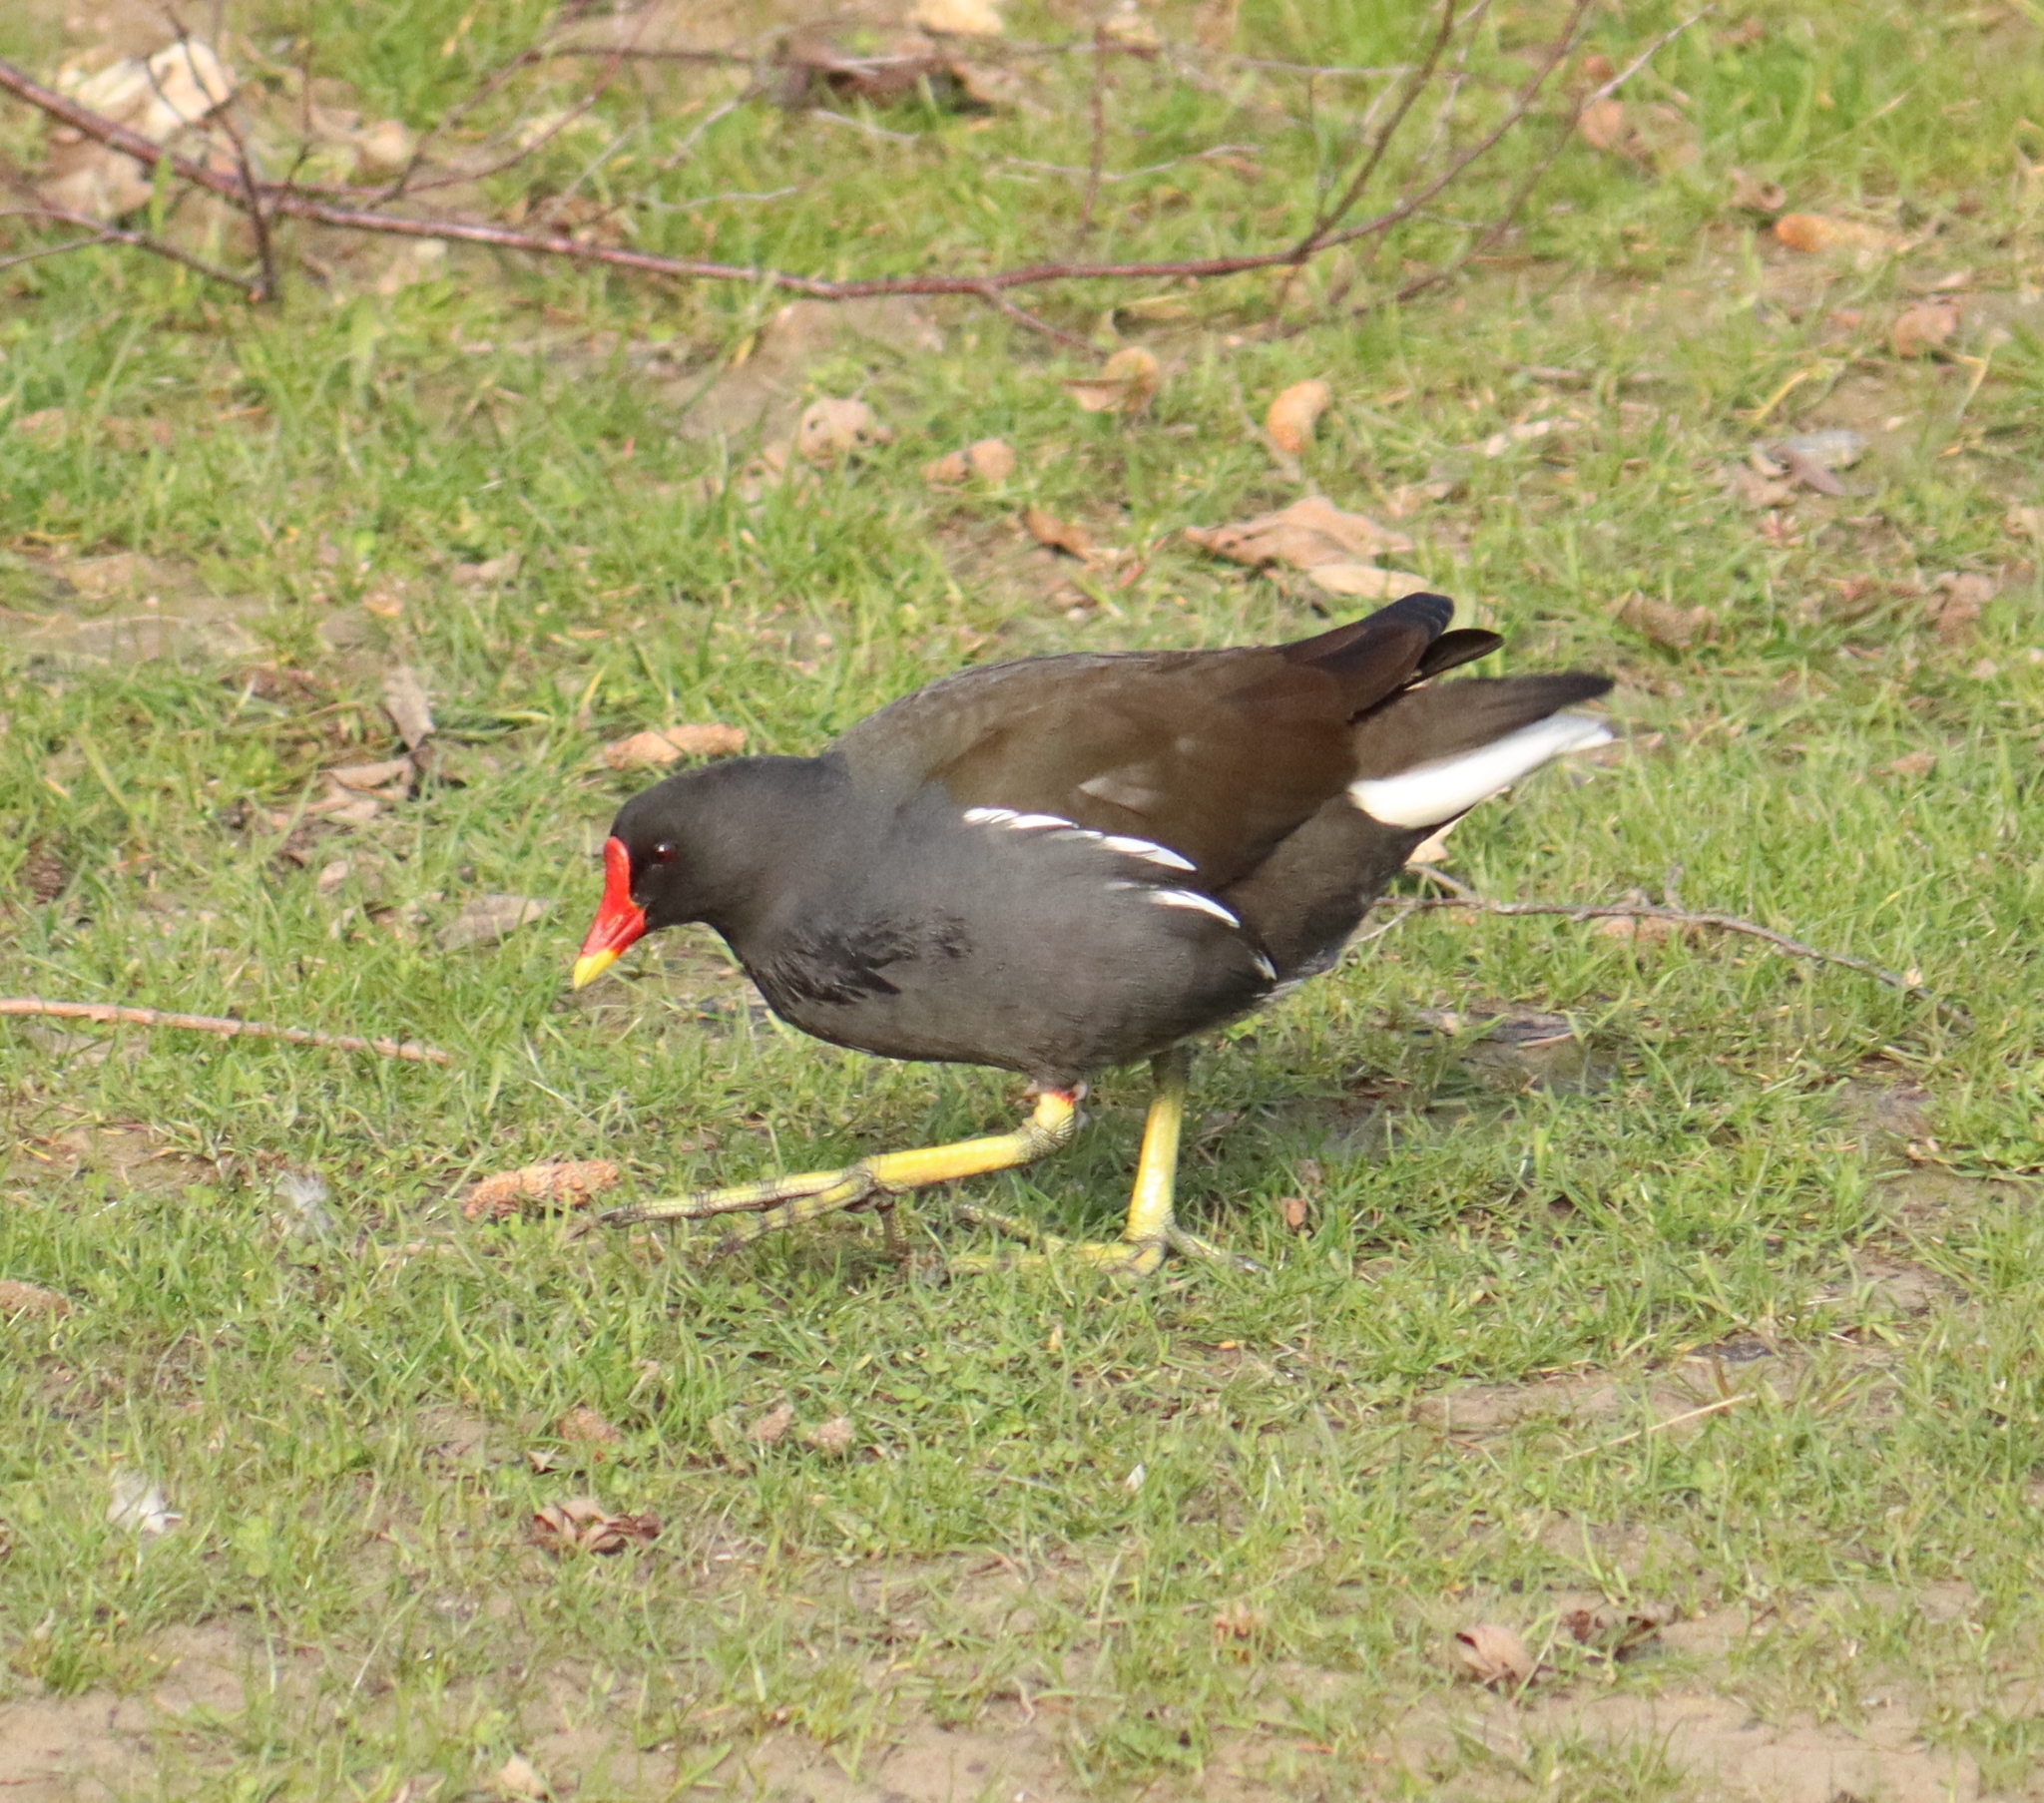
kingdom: Animalia
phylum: Chordata
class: Aves
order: Gruiformes
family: Rallidae
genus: Gallinula
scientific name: Gallinula chloropus
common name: Common moorhen
